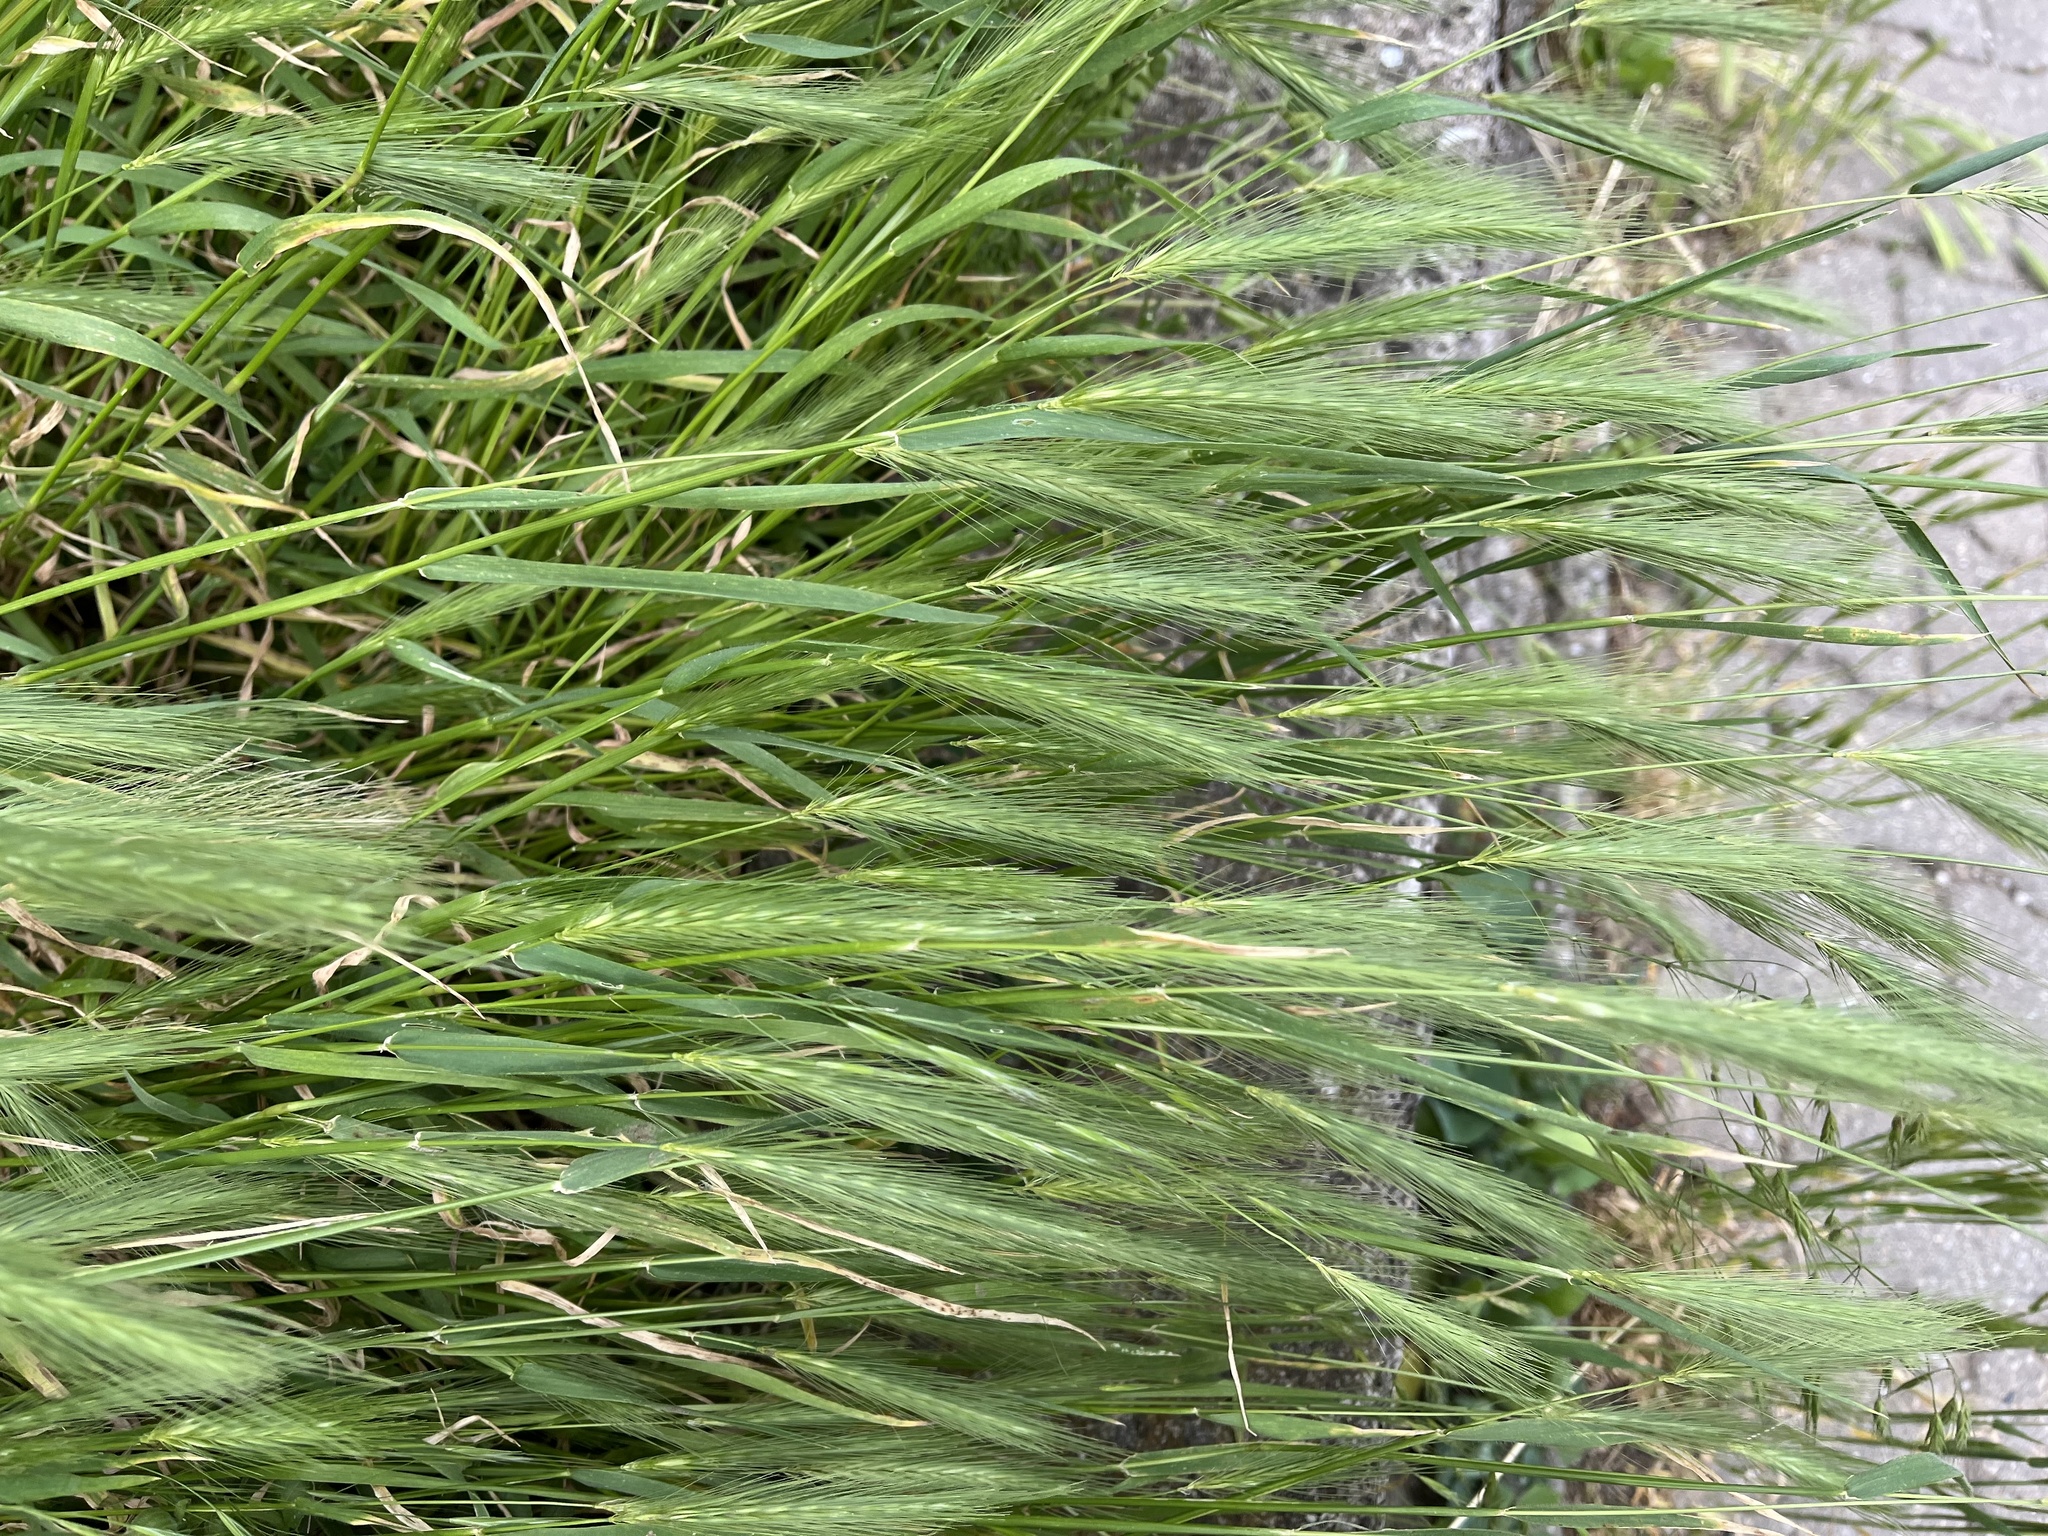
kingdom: Plantae
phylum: Tracheophyta
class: Liliopsida
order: Poales
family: Poaceae
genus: Hordeum
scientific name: Hordeum murinum
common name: Wall barley
